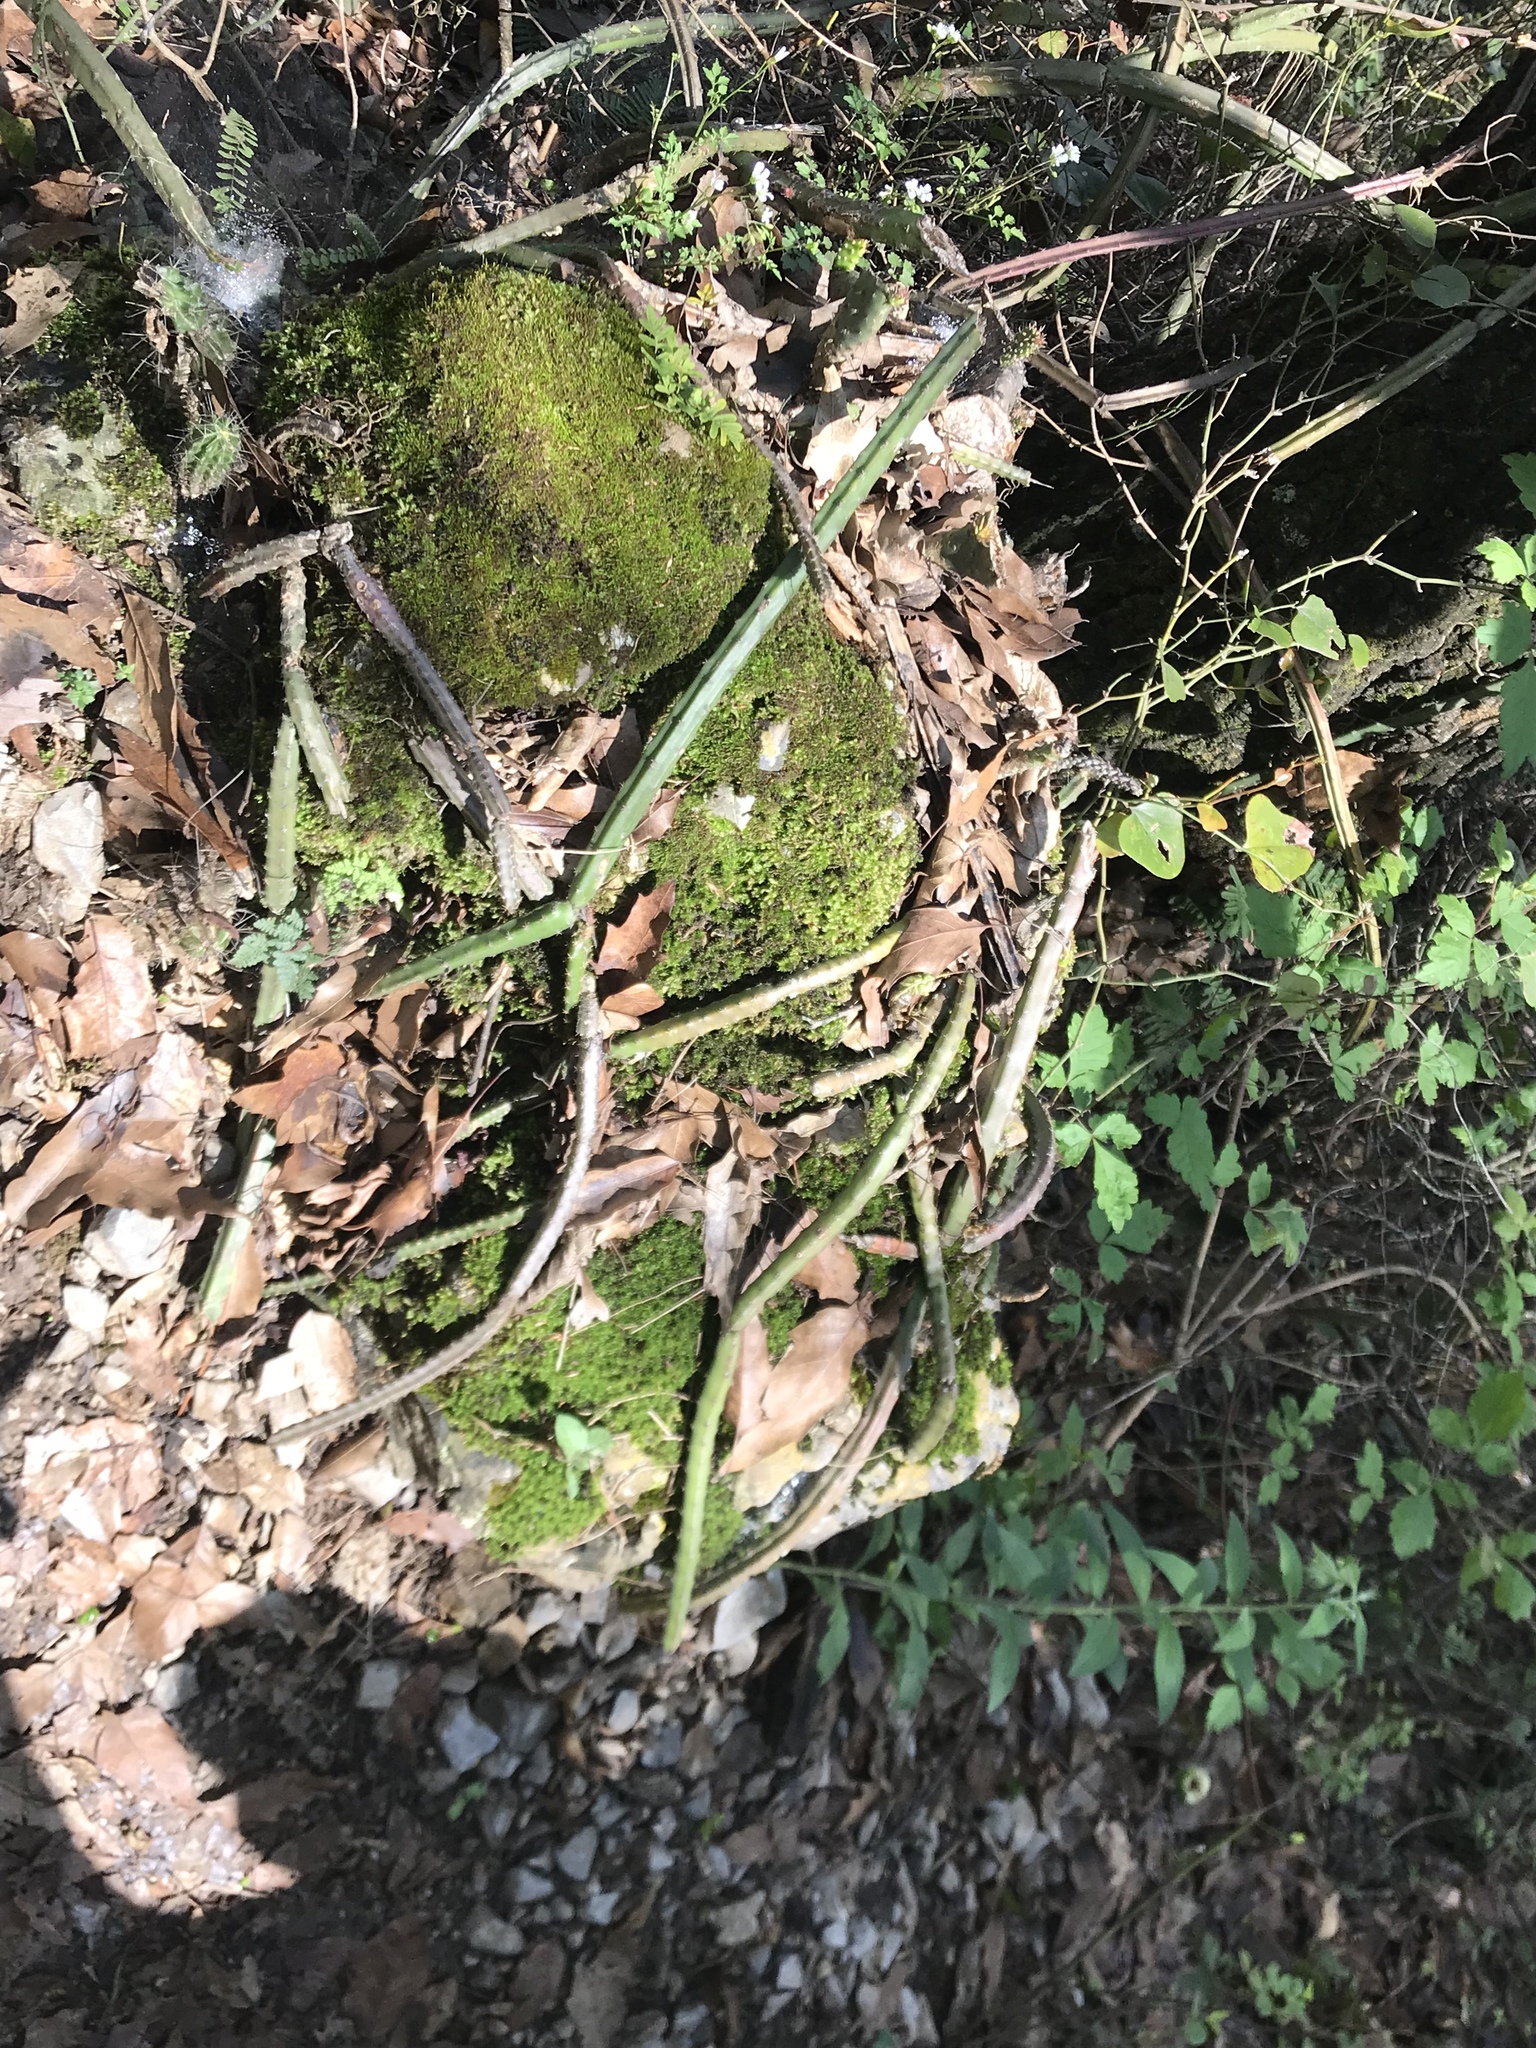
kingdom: Plantae
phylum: Tracheophyta
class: Magnoliopsida
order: Caryophyllales
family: Cactaceae
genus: Selenicereus
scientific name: Selenicereus spinulosus
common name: Nightblooming cereus
